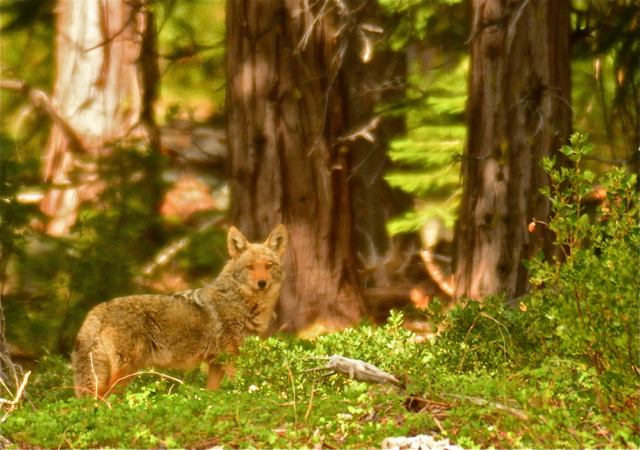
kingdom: Animalia
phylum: Chordata
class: Mammalia
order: Carnivora
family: Canidae
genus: Canis
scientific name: Canis latrans
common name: Coyote
